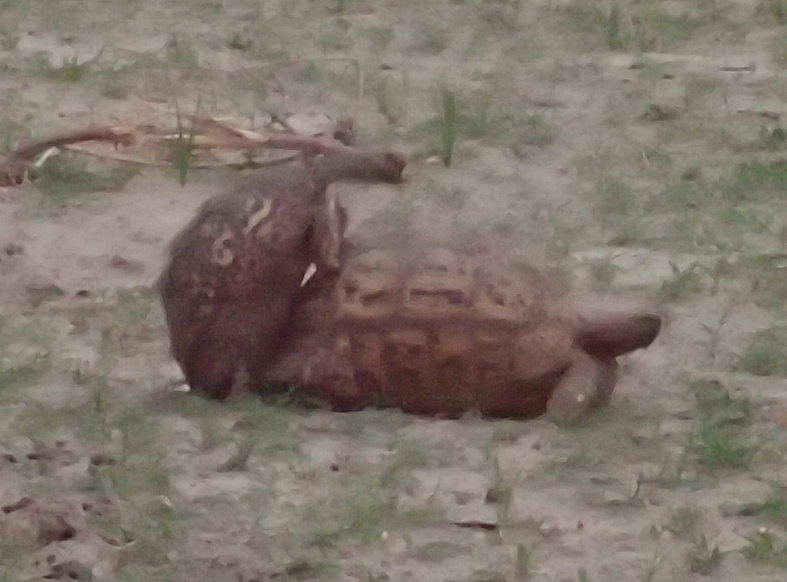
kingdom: Animalia
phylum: Chordata
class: Testudines
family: Testudinidae
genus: Stigmochelys
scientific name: Stigmochelys pardalis
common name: Leopard tortoise
